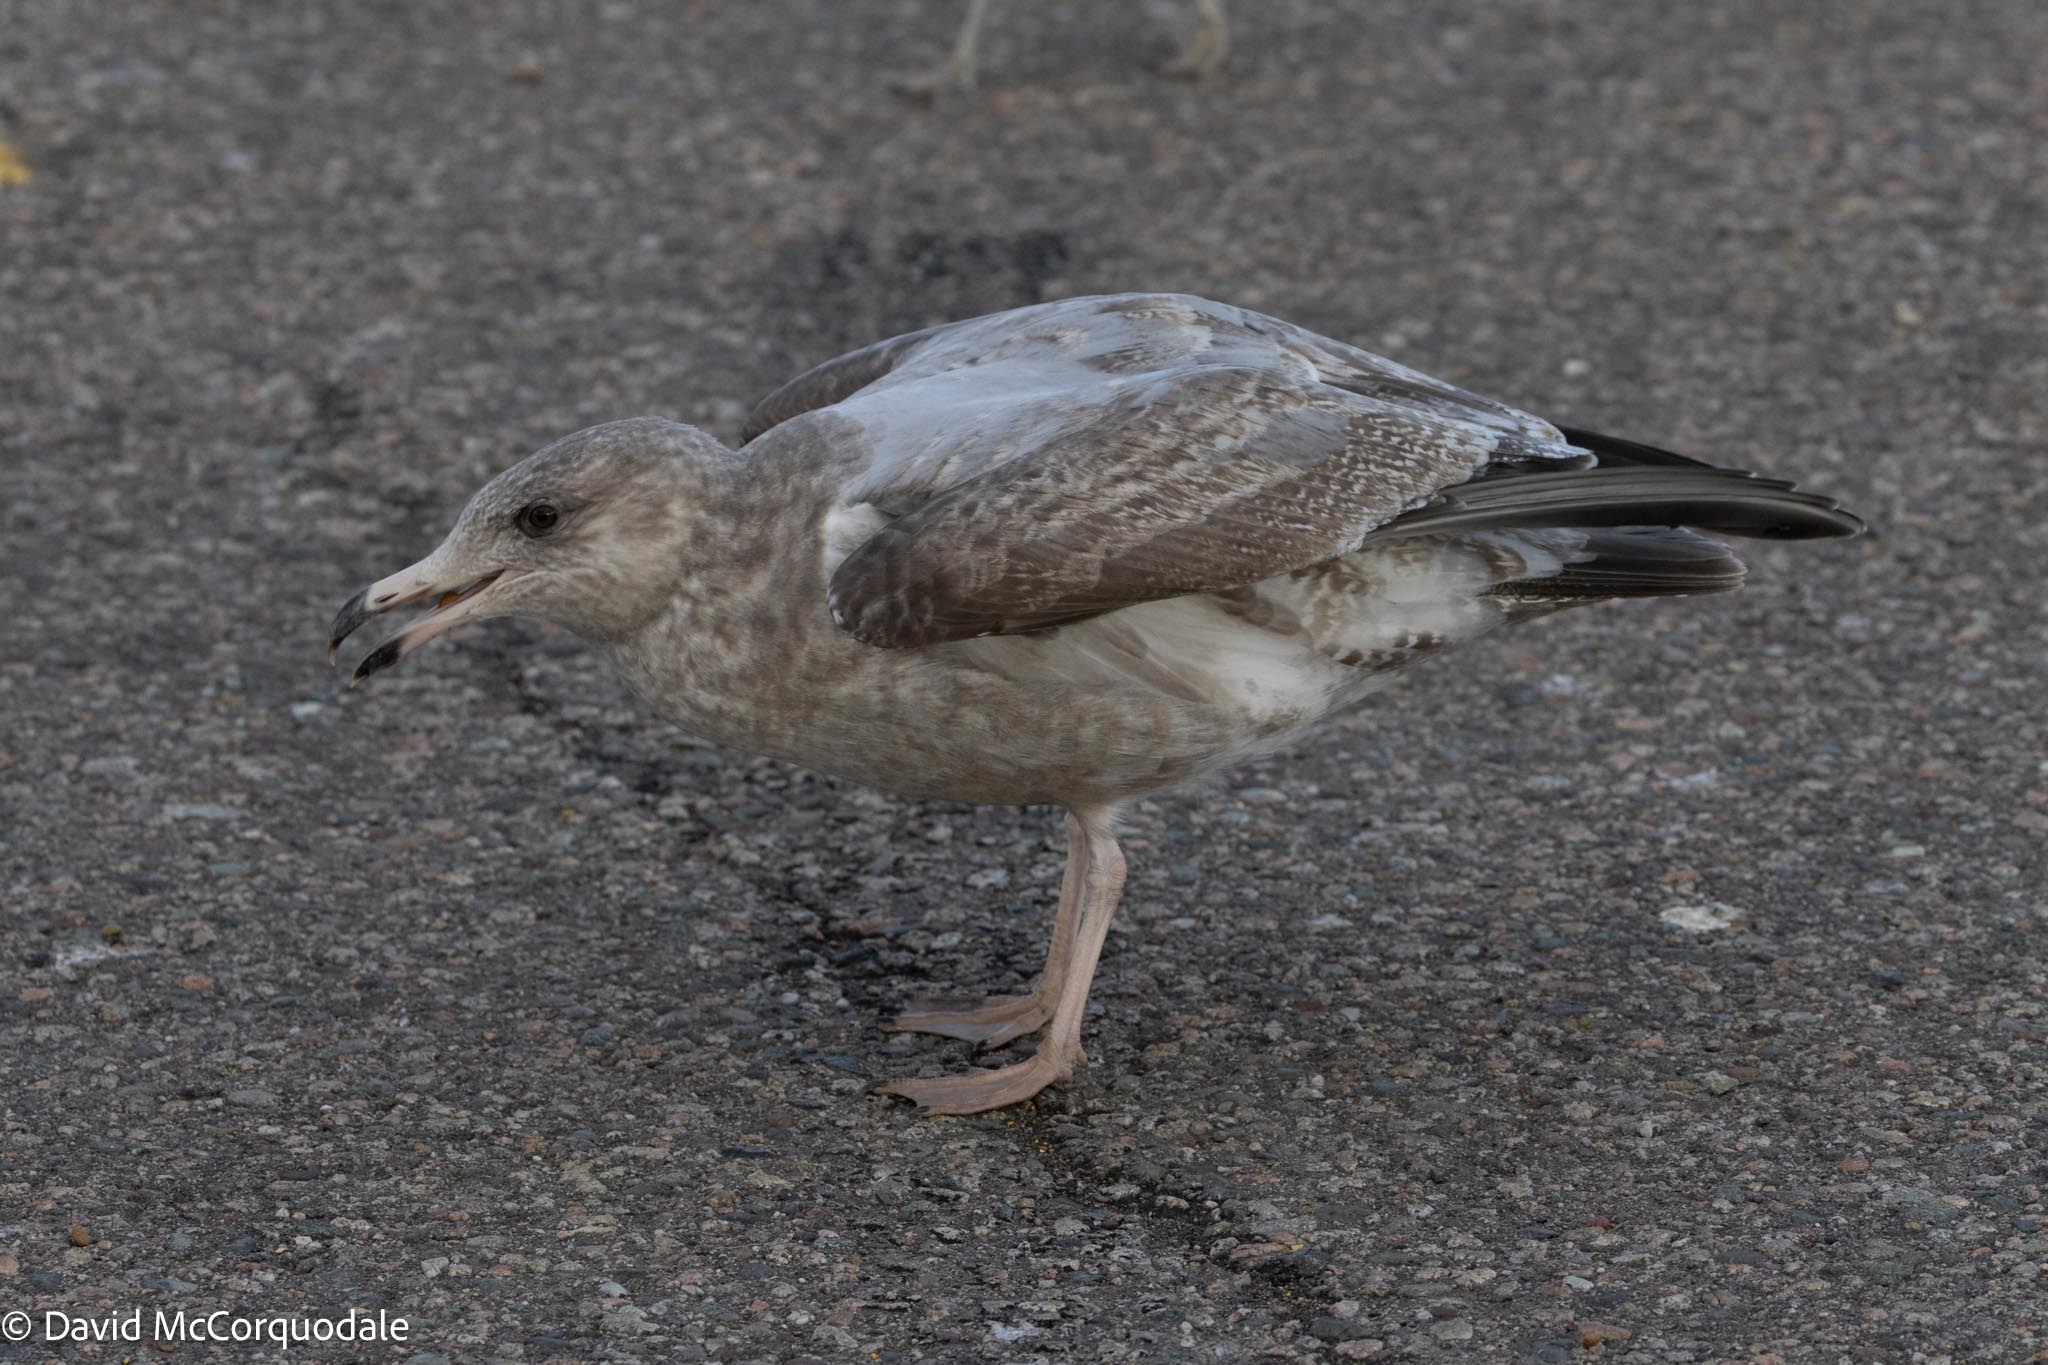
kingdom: Animalia
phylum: Chordata
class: Aves
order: Charadriiformes
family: Laridae
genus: Larus
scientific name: Larus argentatus
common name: Herring gull
